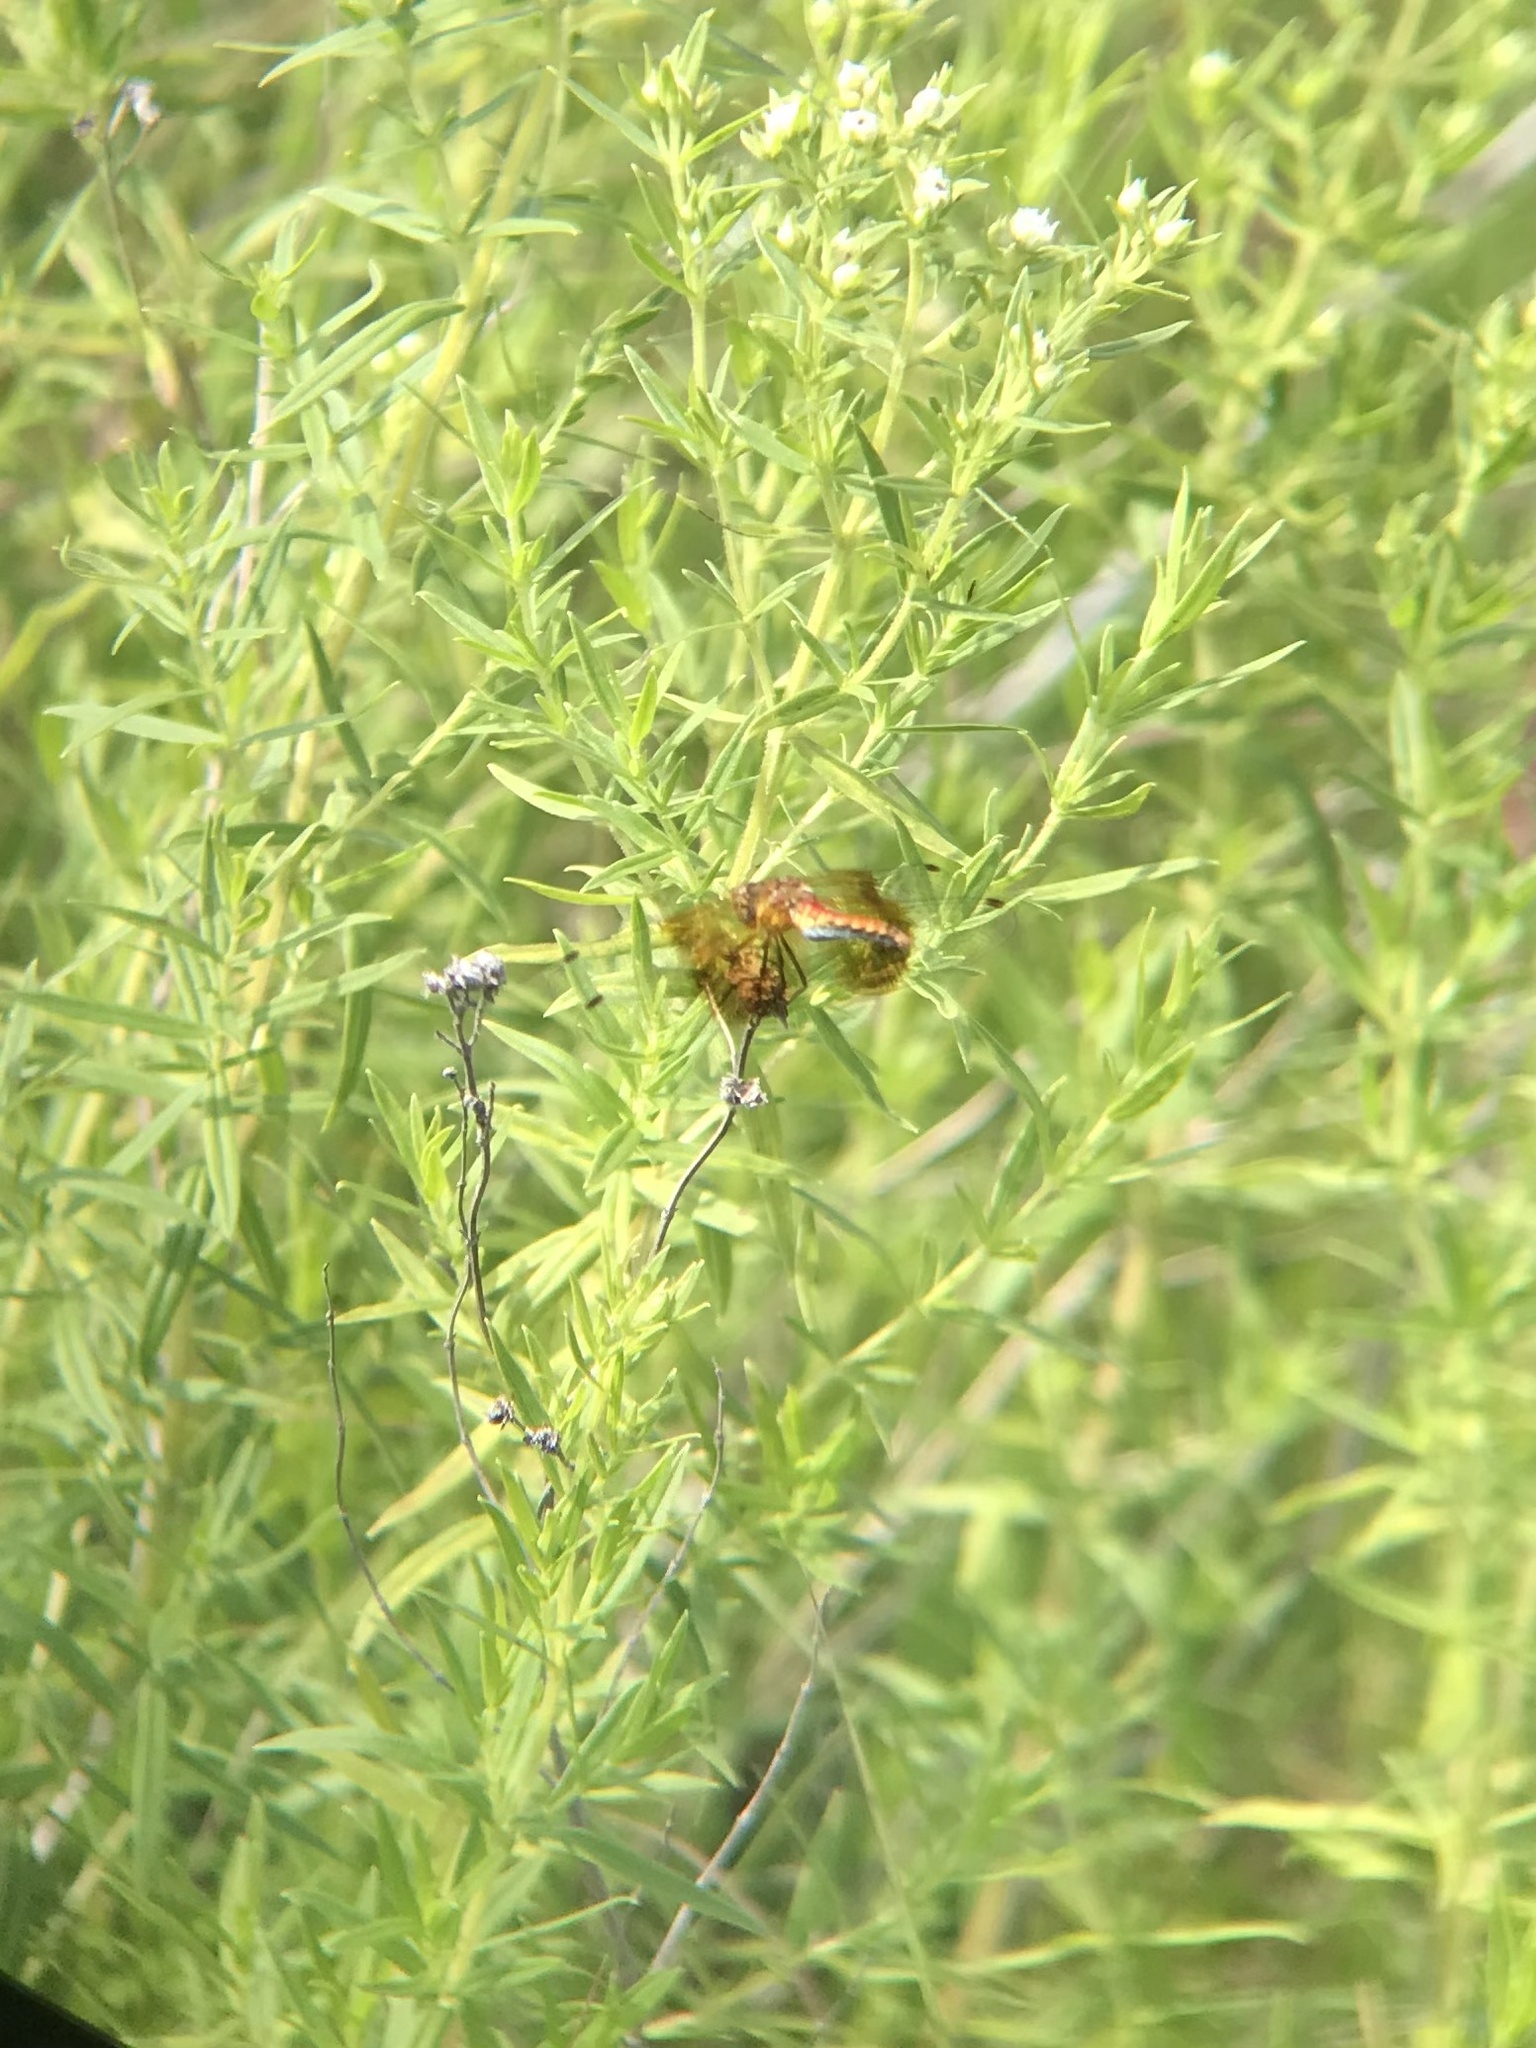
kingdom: Animalia
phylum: Arthropoda
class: Insecta
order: Odonata
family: Libellulidae
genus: Sympetrum
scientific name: Sympetrum semicinctum
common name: Band-winged meadowhawk
